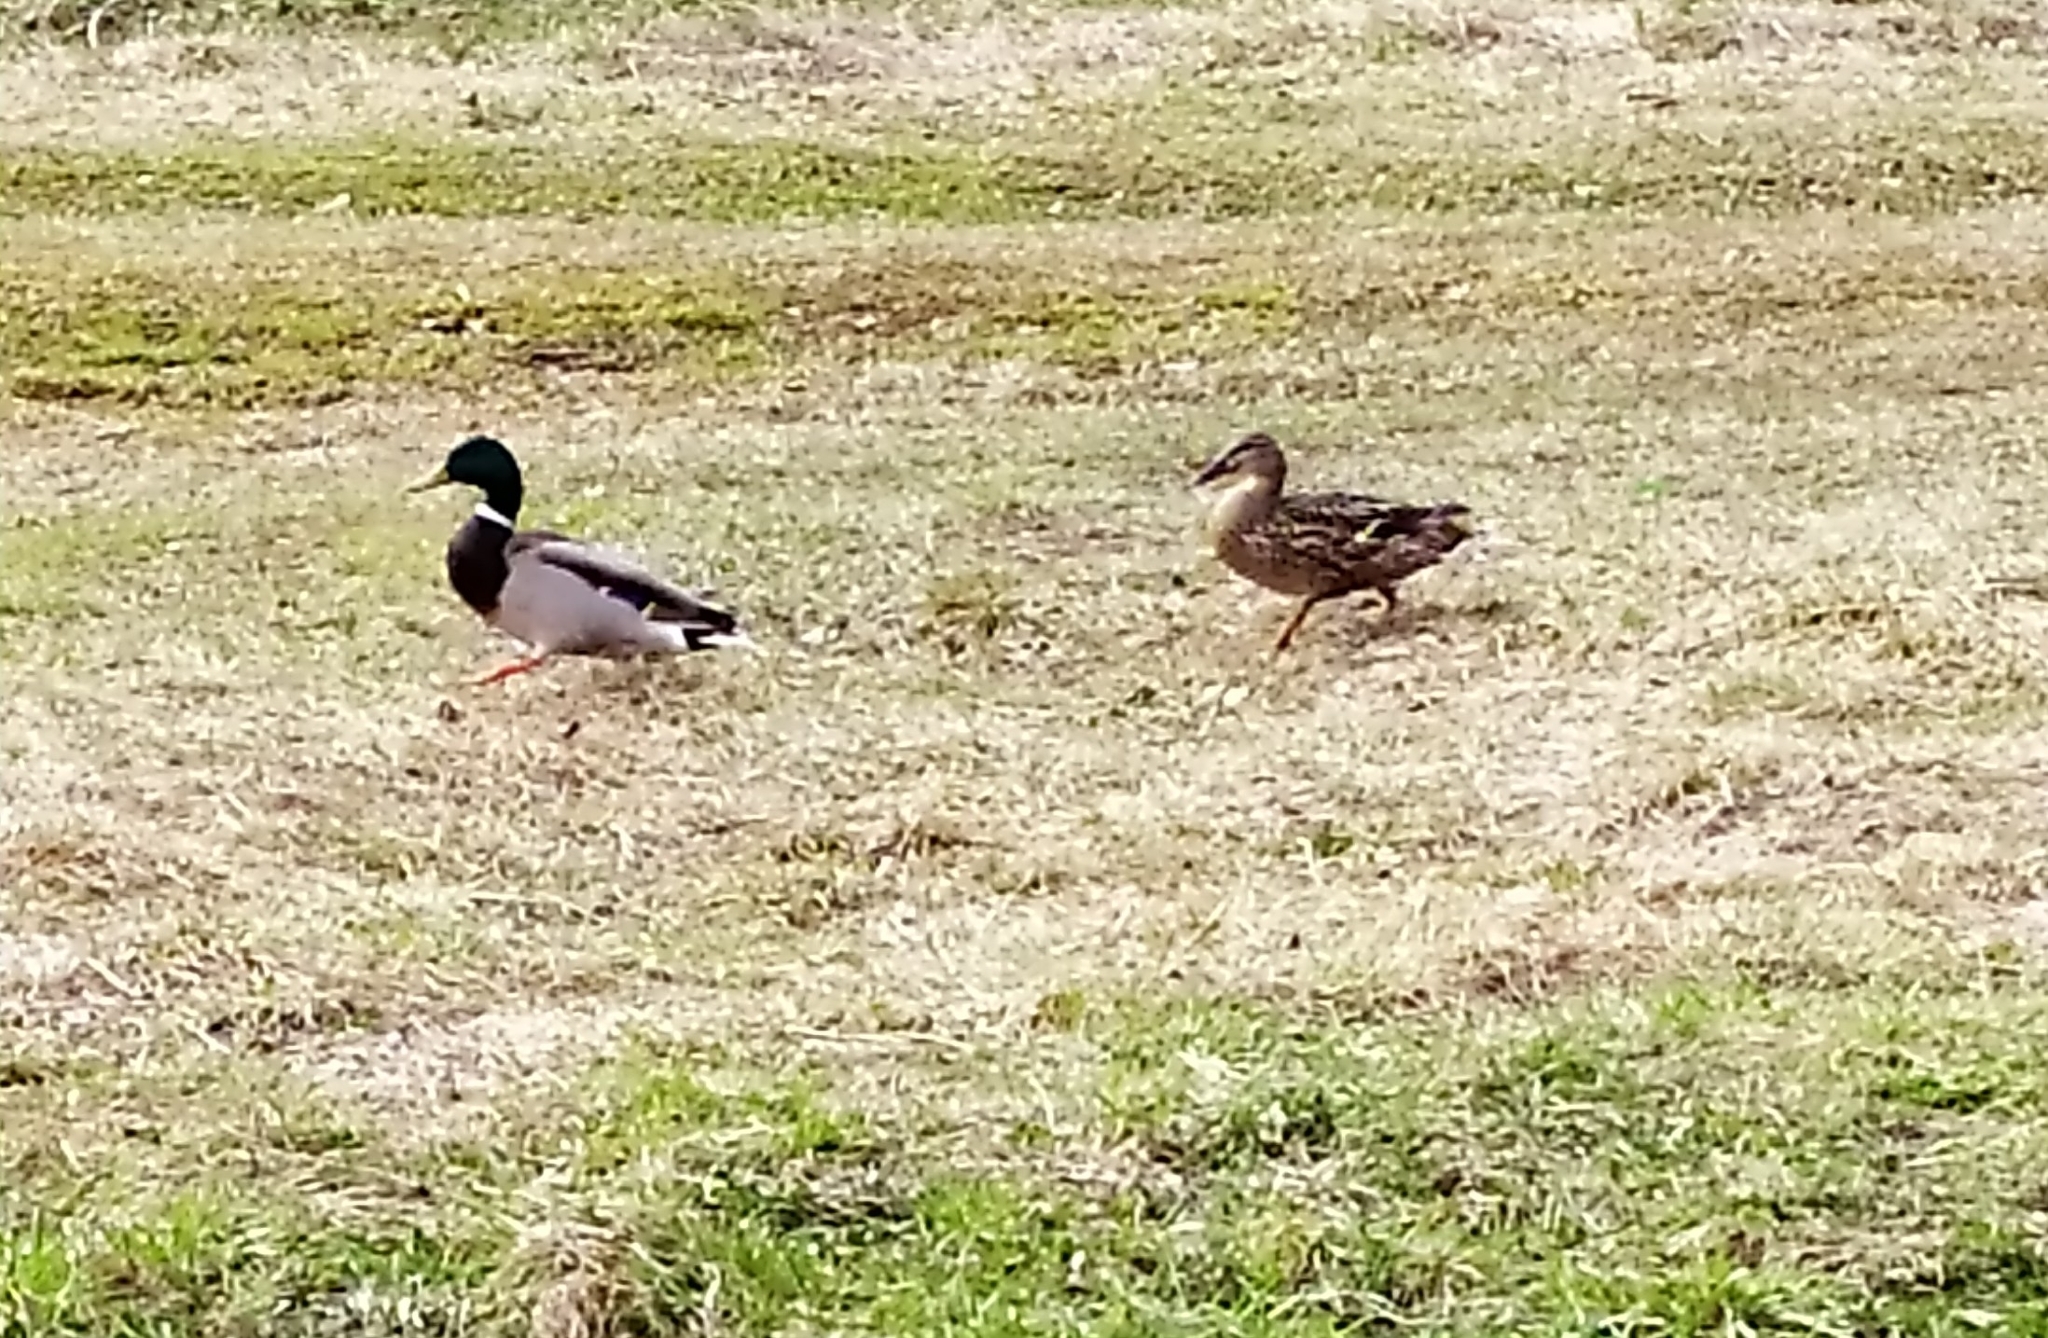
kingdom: Animalia
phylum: Chordata
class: Aves
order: Anseriformes
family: Anatidae
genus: Anas
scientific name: Anas platyrhynchos
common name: Mallard
